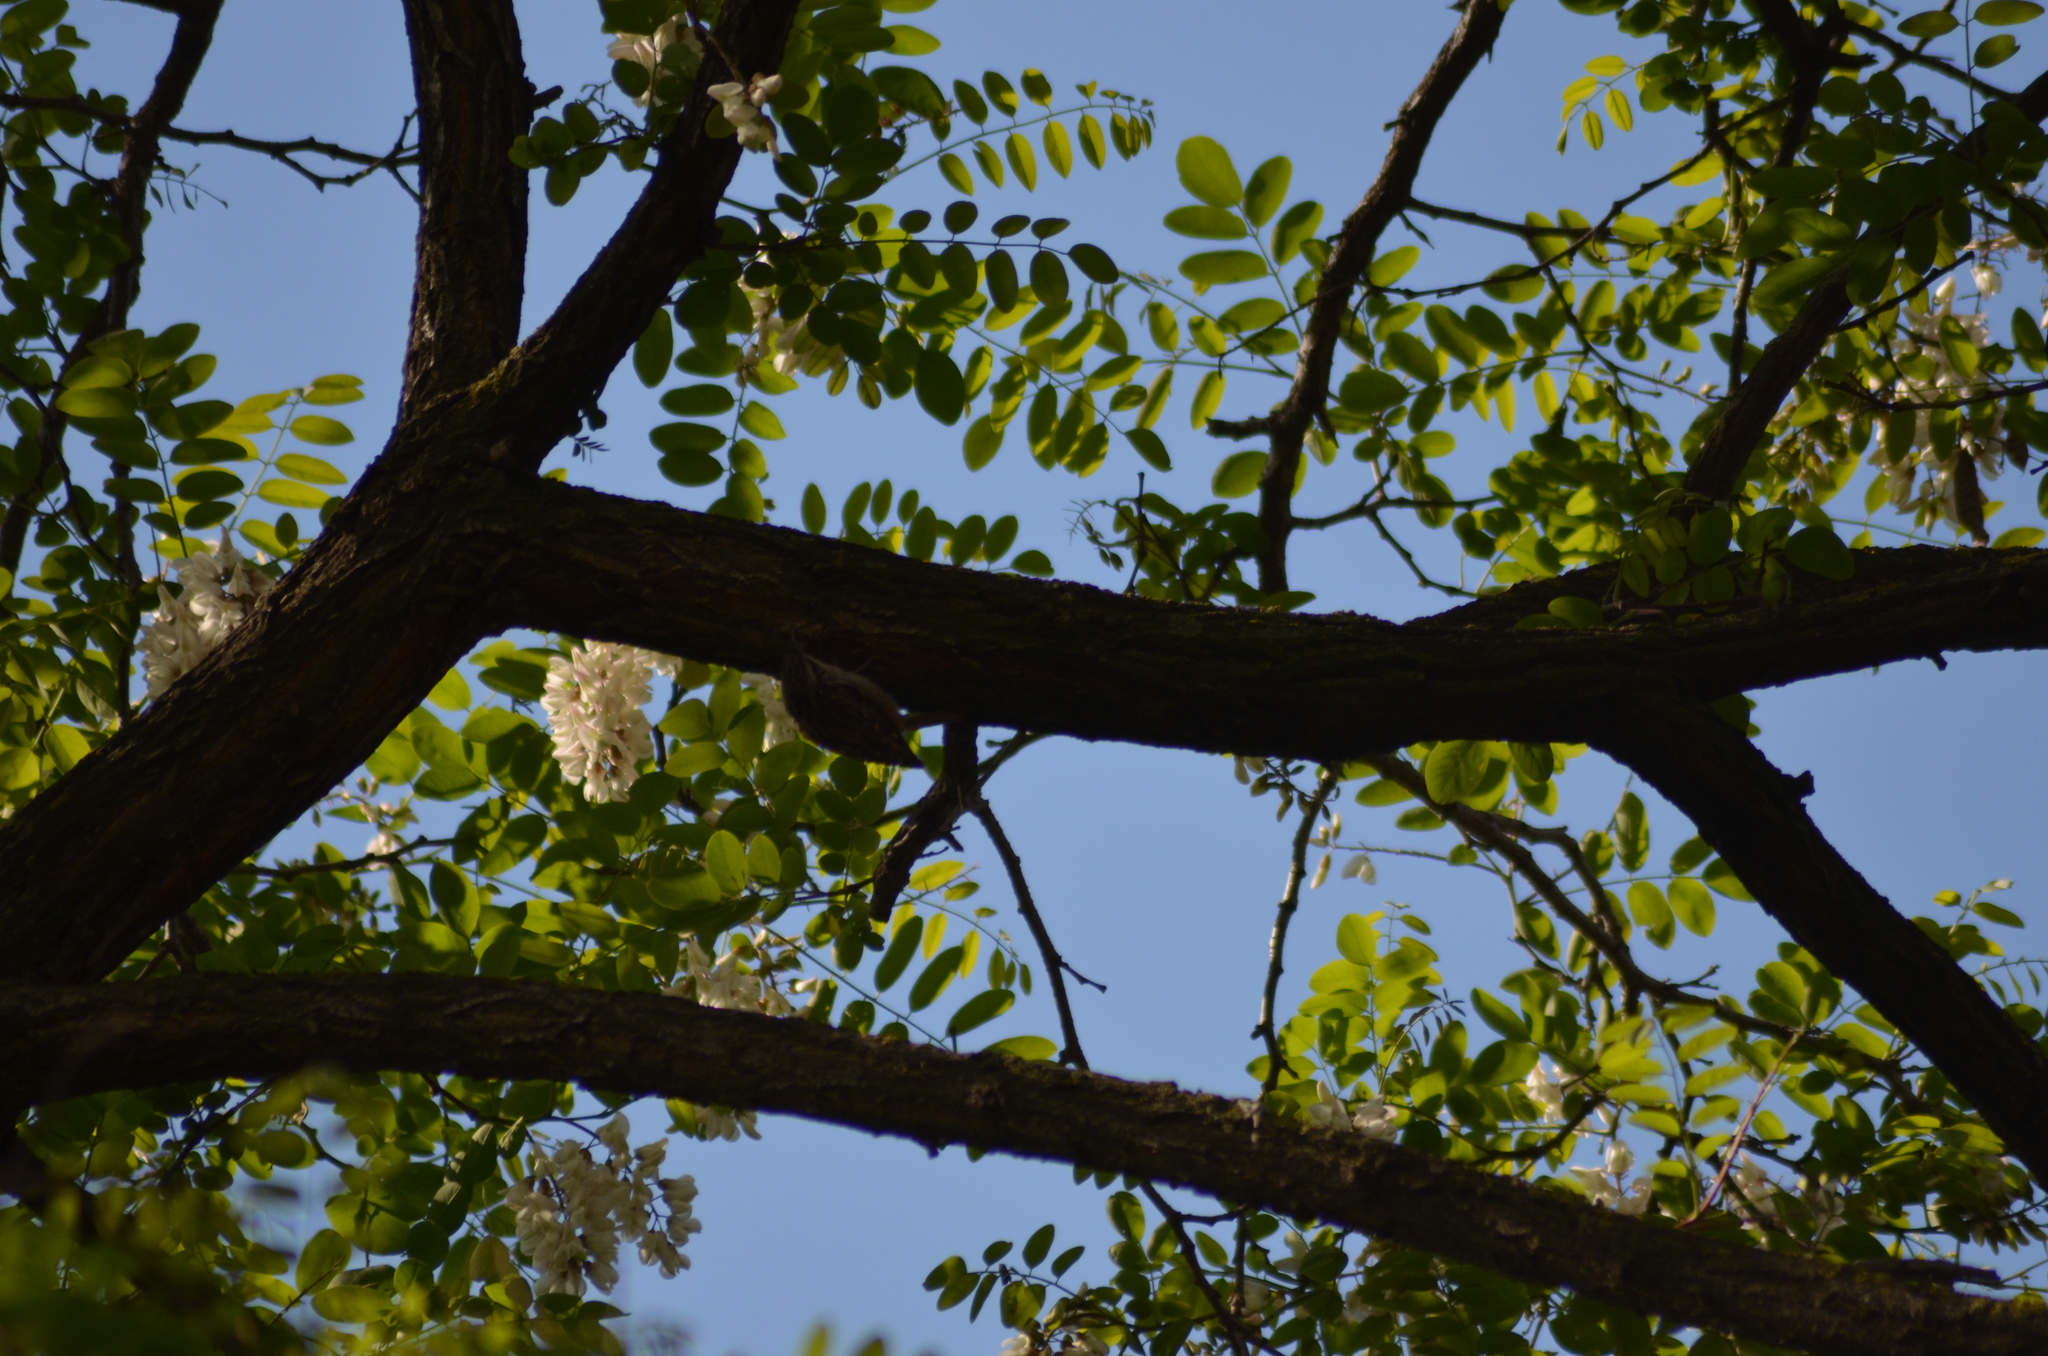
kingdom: Animalia
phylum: Chordata
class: Aves
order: Passeriformes
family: Certhiidae
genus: Certhia
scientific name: Certhia brachydactyla
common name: Short-toed treecreeper
